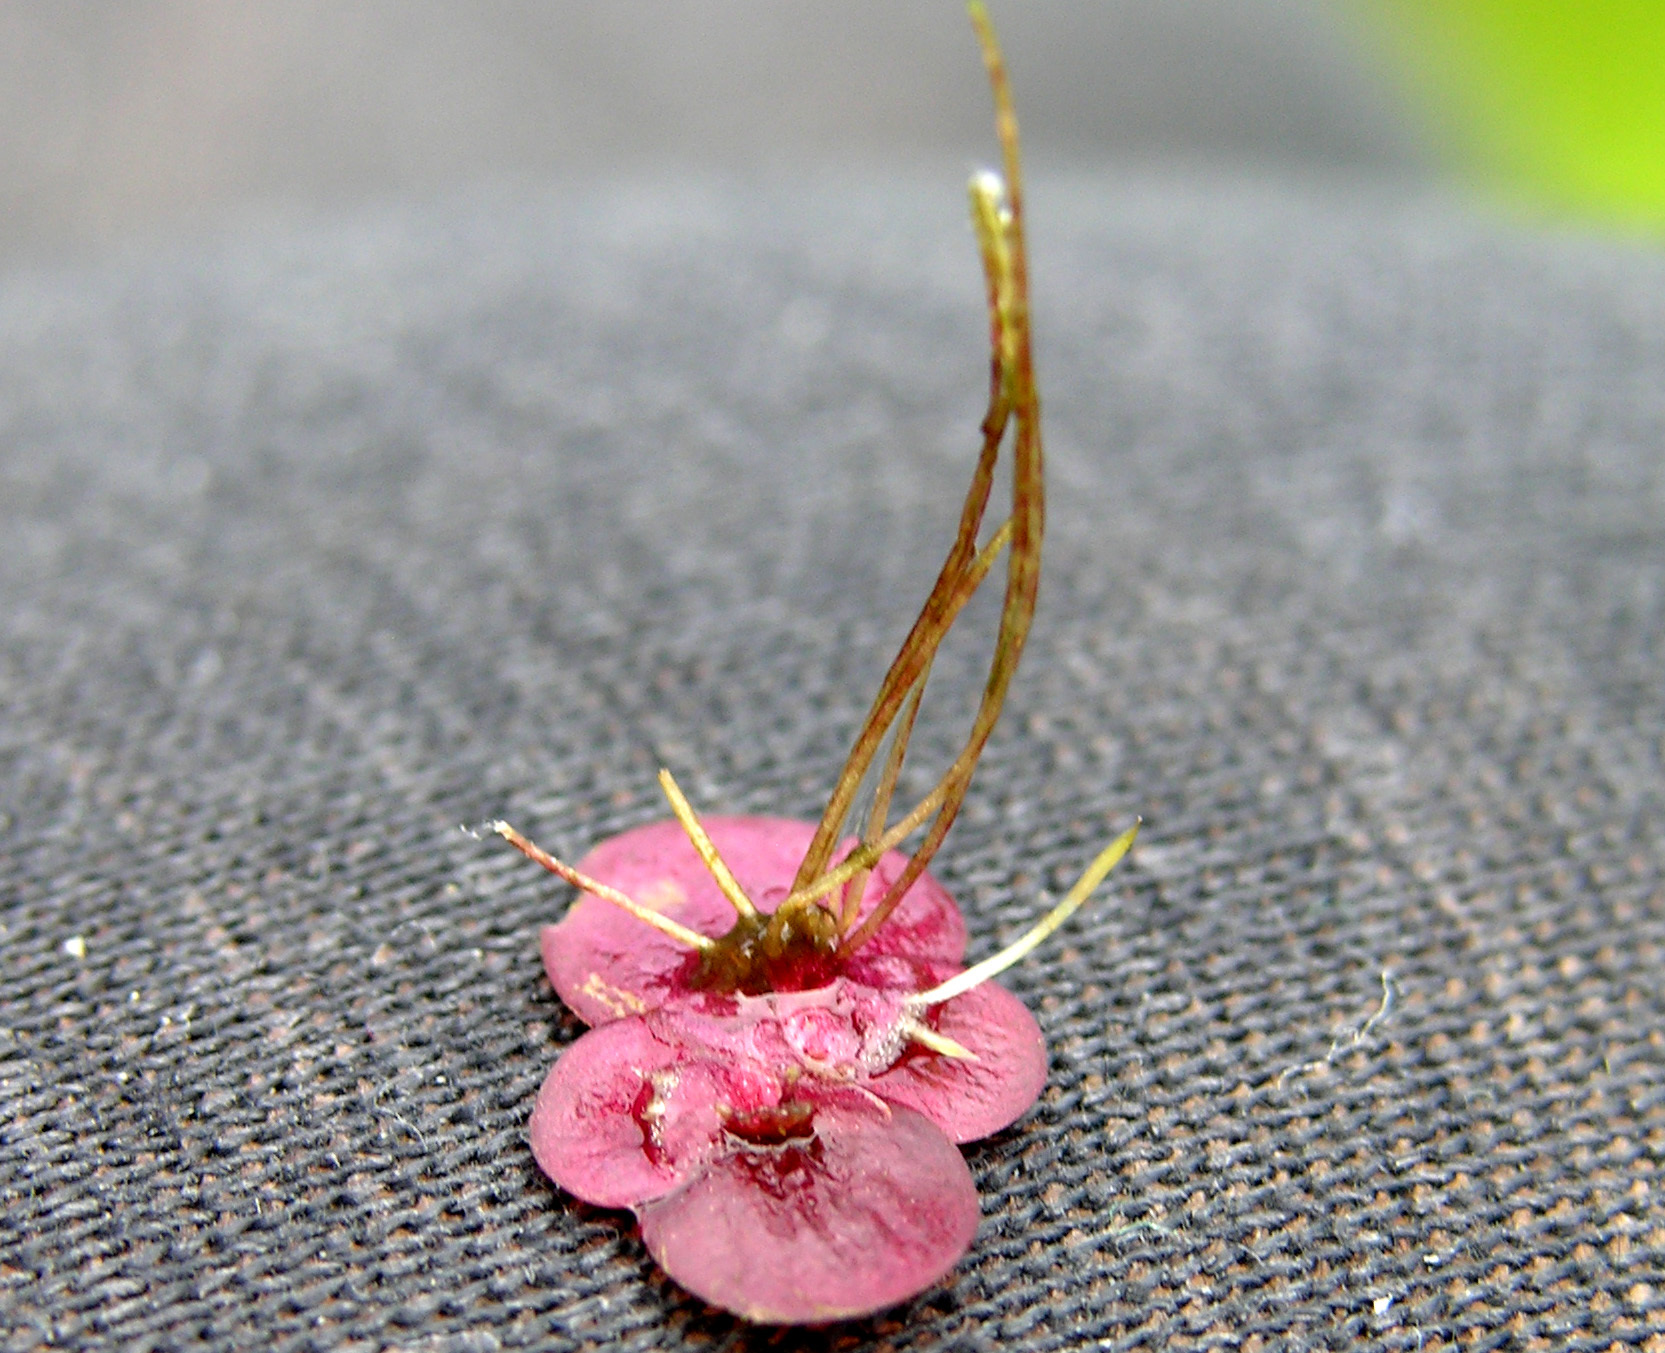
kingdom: Plantae
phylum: Tracheophyta
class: Liliopsida
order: Alismatales
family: Araceae
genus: Spirodela
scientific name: Spirodela polyrhiza
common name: Great duckweed
